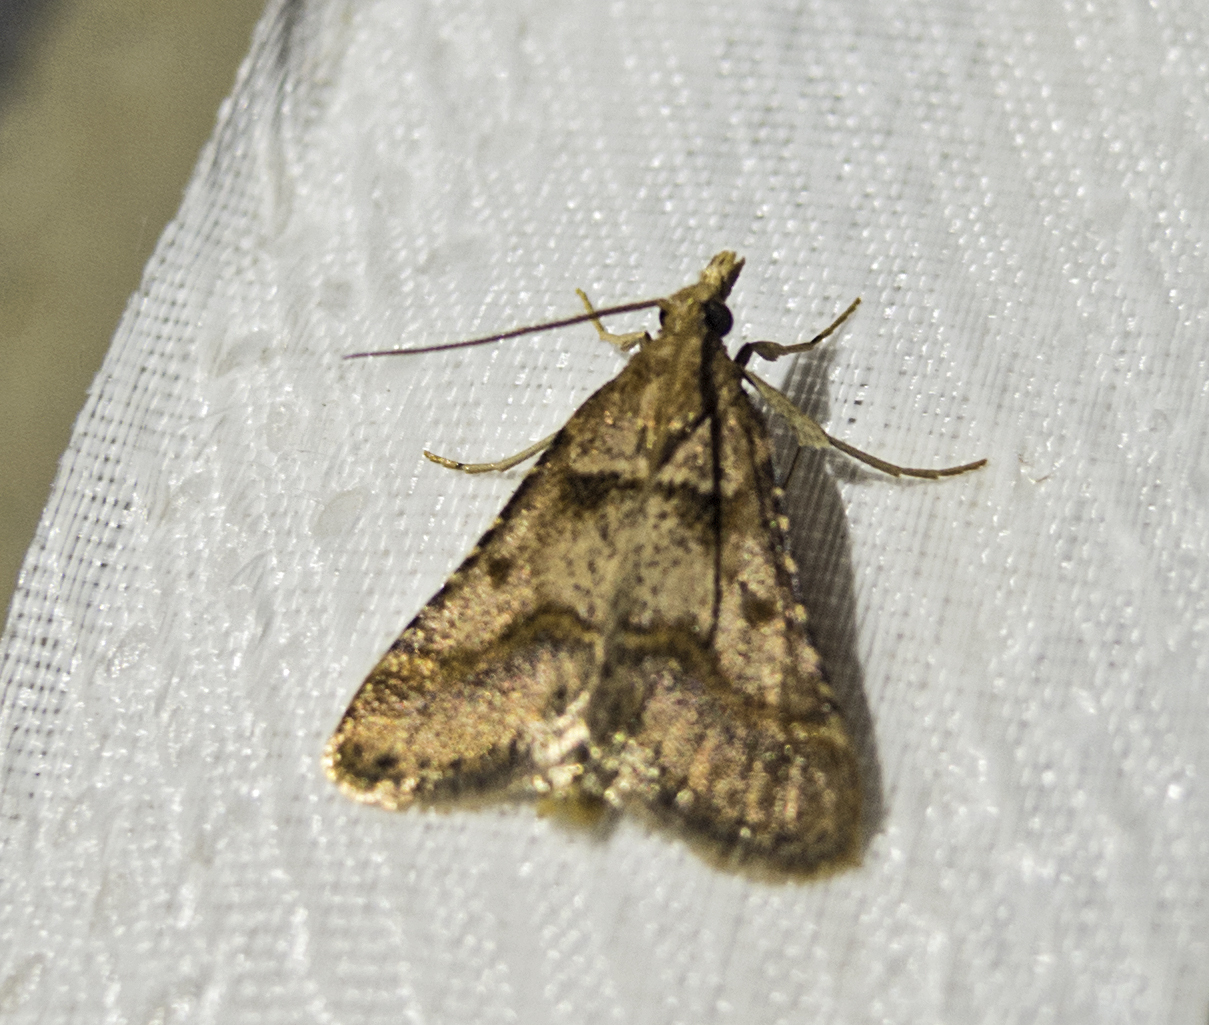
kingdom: Animalia
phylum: Arthropoda
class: Insecta
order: Lepidoptera
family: Pyralidae
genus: Stemmatophora
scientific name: Stemmatophora brunnealis
